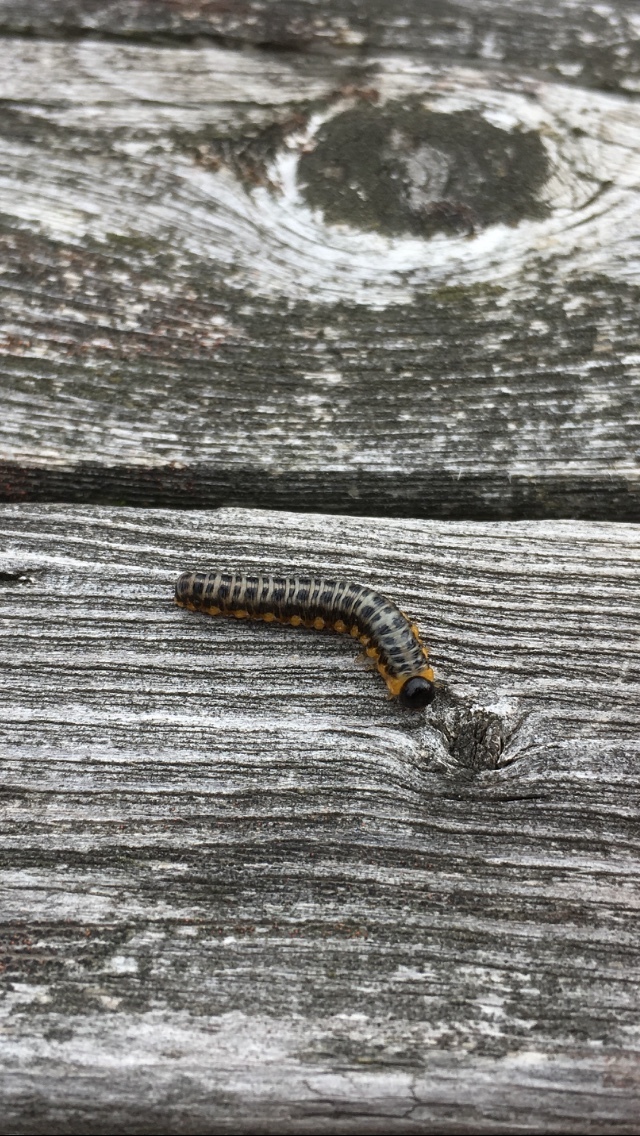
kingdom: Animalia
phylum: Arthropoda
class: Insecta
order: Hymenoptera
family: Tenthredinidae
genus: Macremphytus
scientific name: Macremphytus testaceus
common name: Dogwood sawfly
